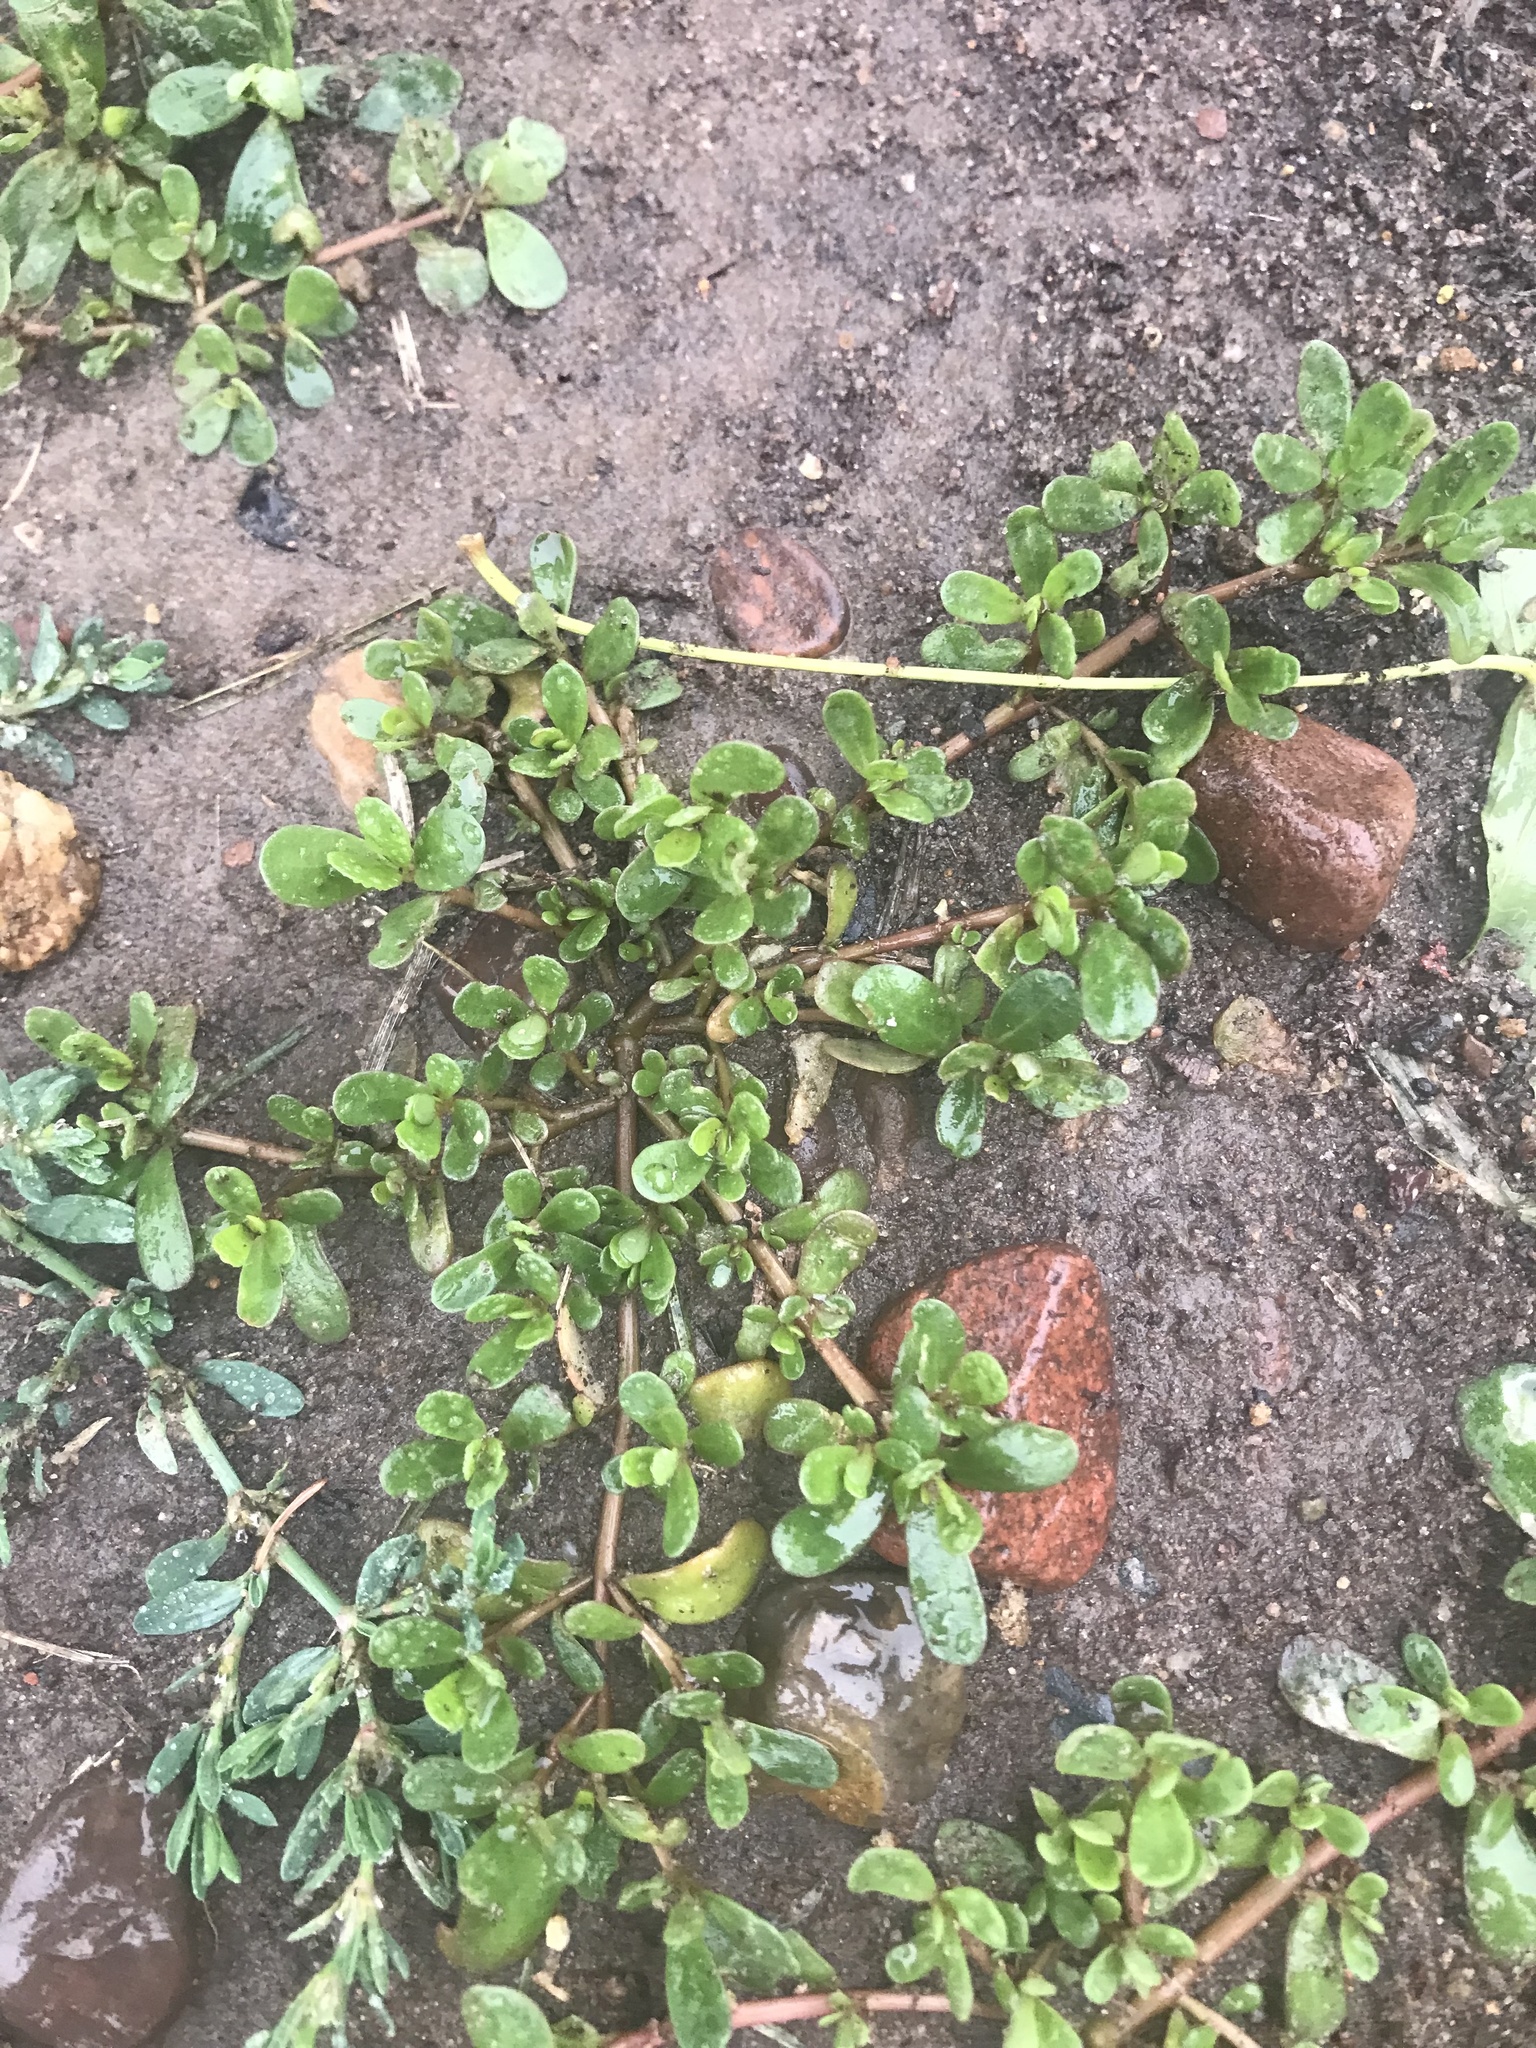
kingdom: Plantae
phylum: Tracheophyta
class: Magnoliopsida
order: Caryophyllales
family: Portulacaceae
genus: Portulaca
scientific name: Portulaca oleracea
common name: Common purslane
